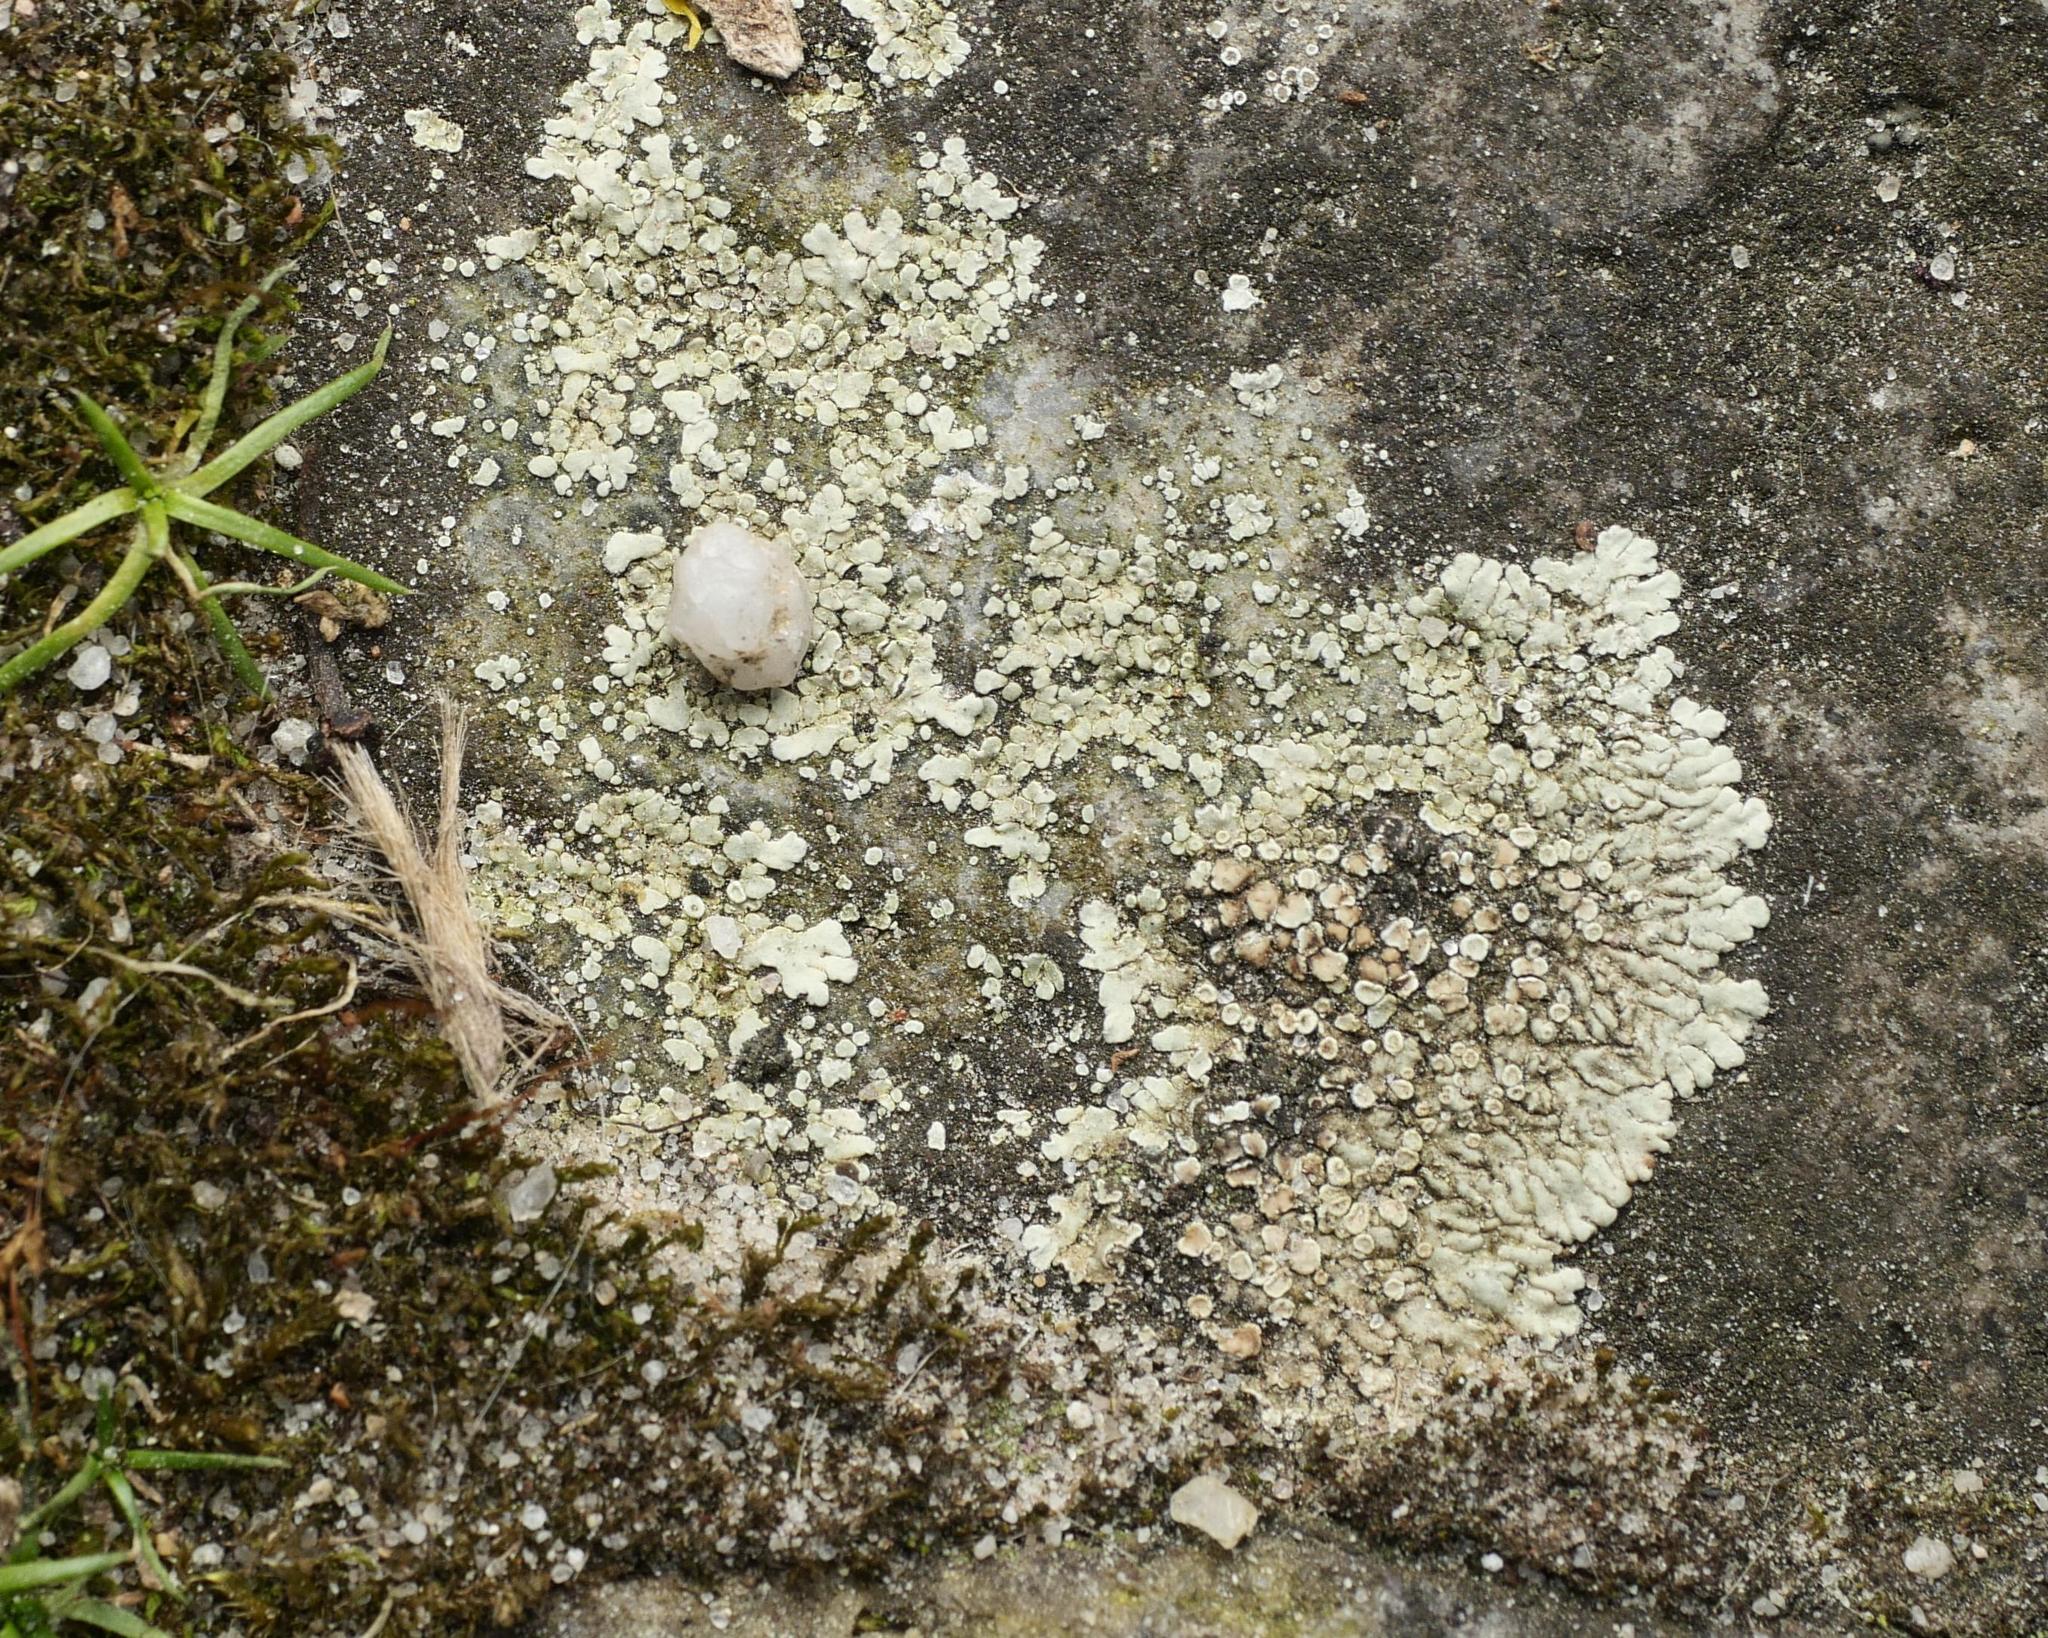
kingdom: Fungi
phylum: Ascomycota
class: Lecanoromycetes
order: Lecanorales
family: Lecanoraceae
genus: Protoparmeliopsis
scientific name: Protoparmeliopsis muralis
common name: Stonewall rim lichen
